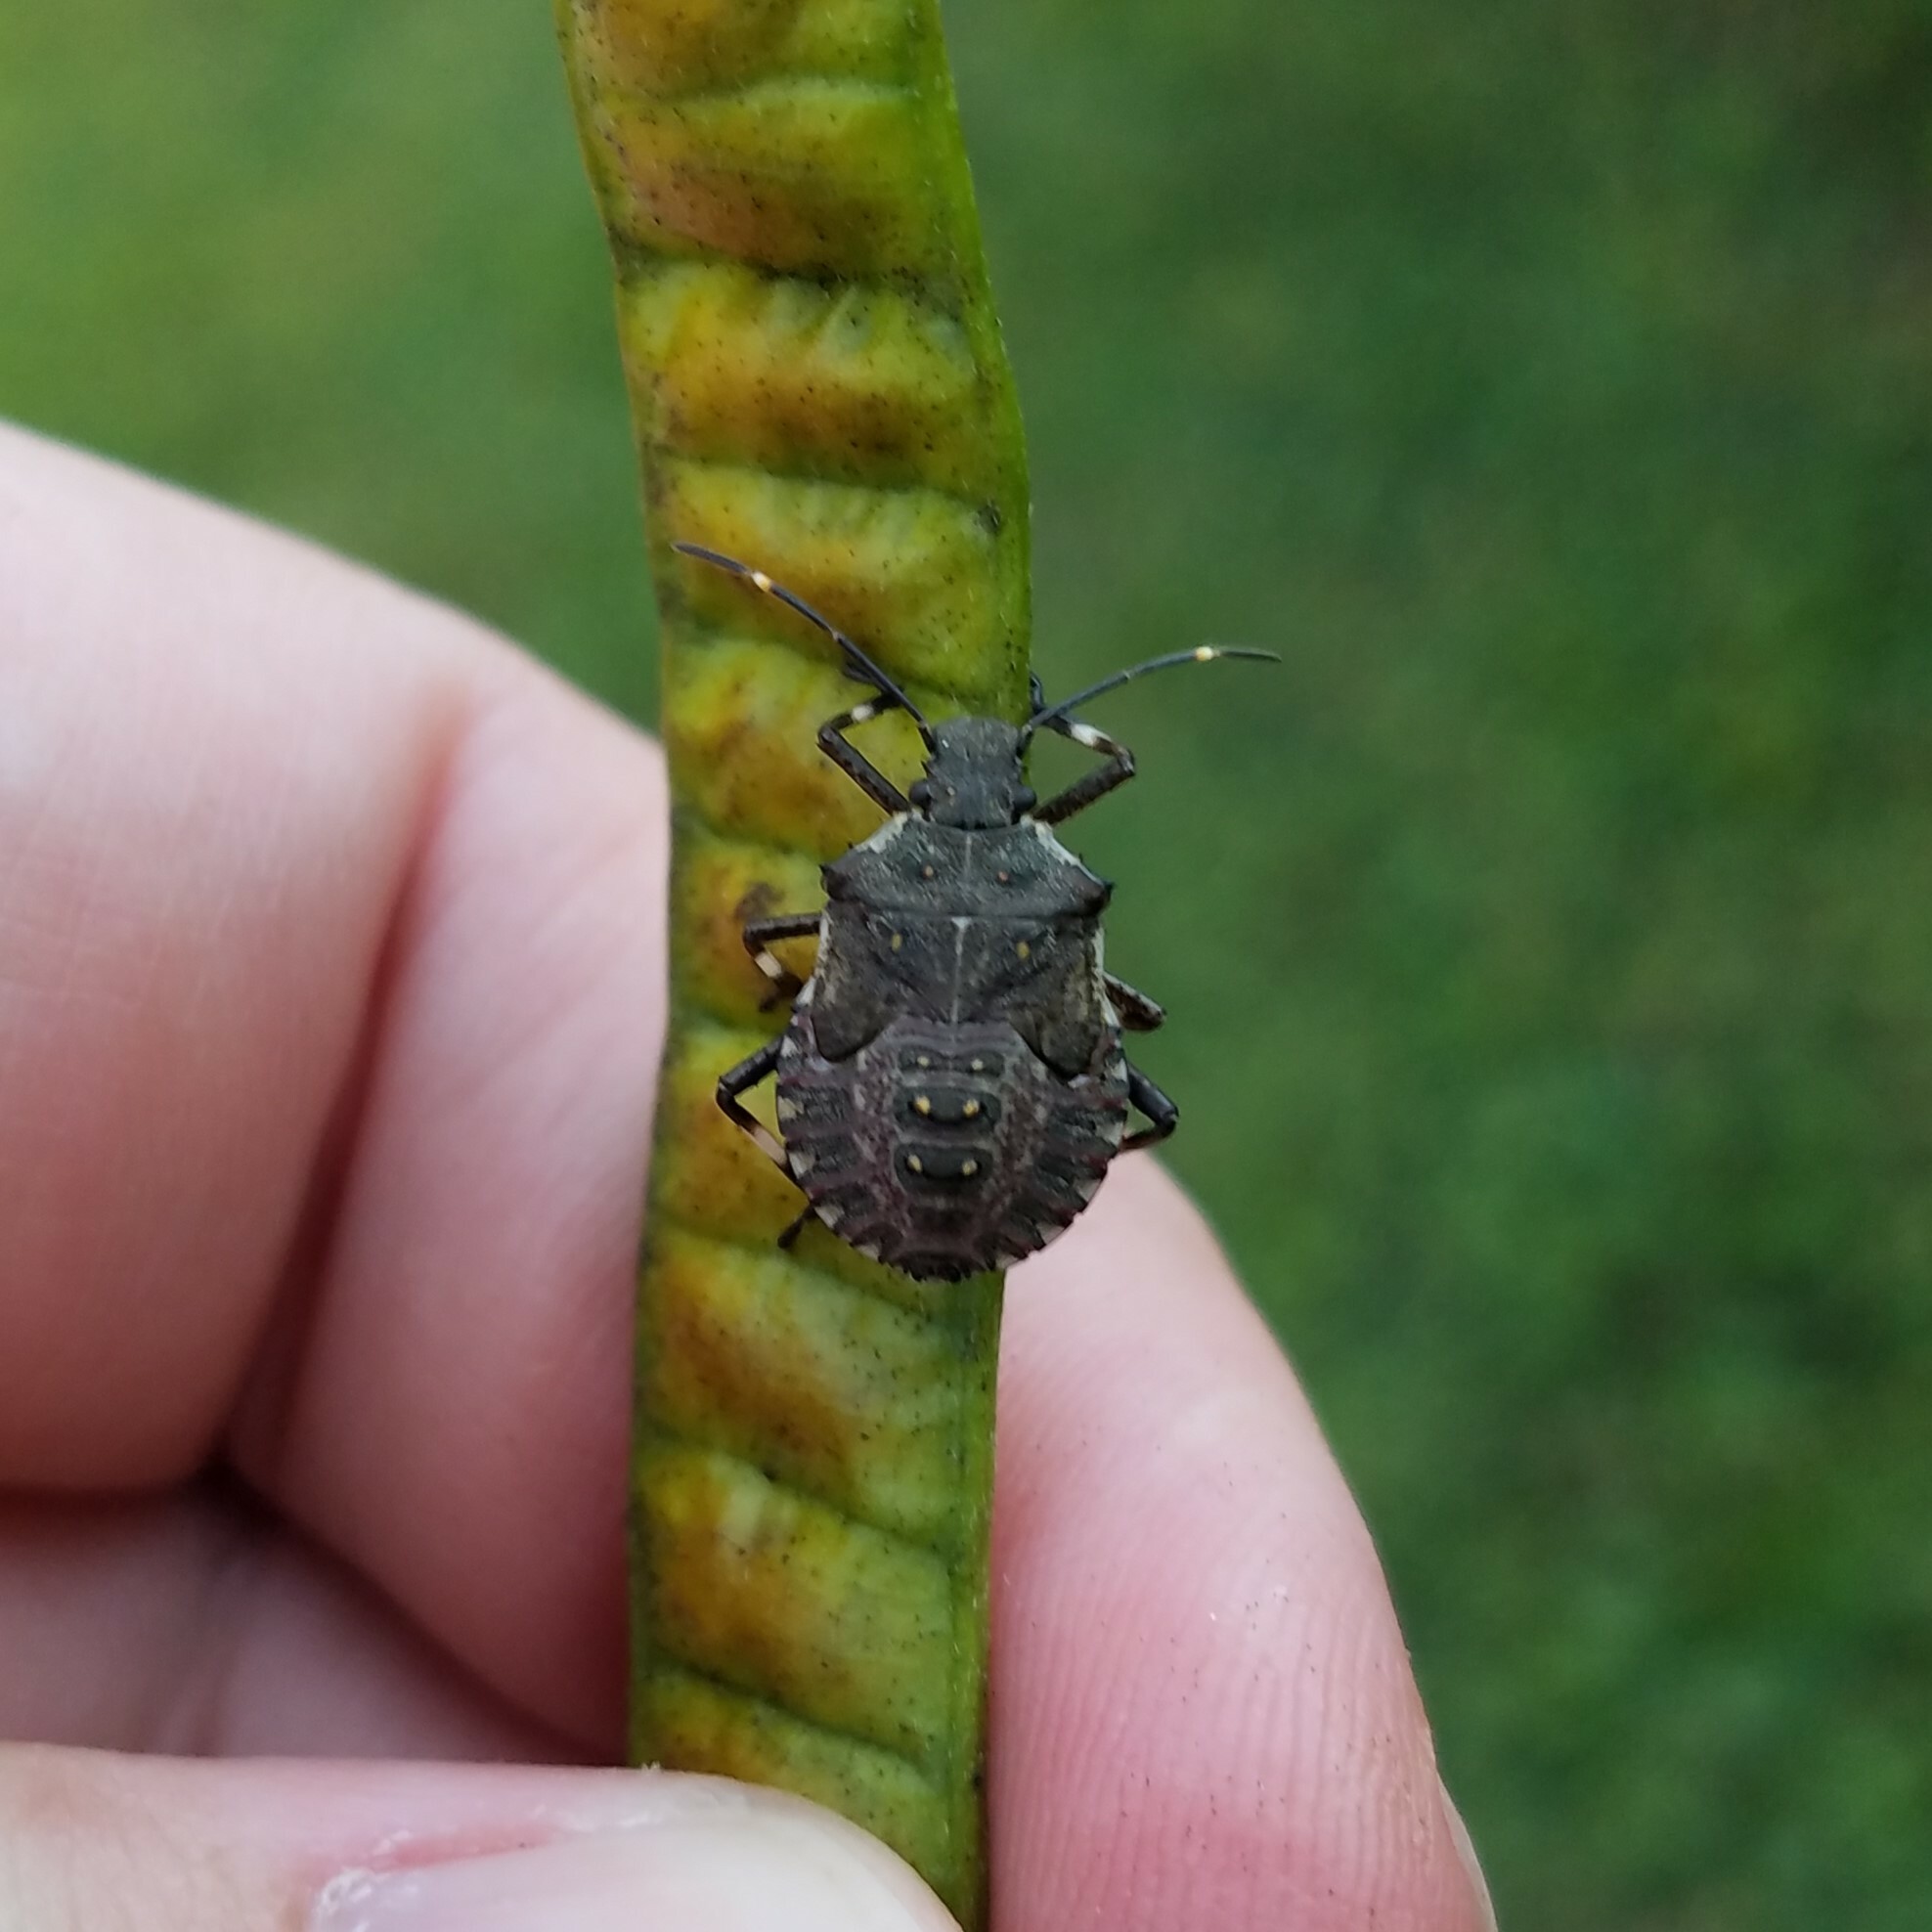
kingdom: Animalia
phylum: Arthropoda
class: Insecta
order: Hemiptera
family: Pentatomidae
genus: Halyomorpha
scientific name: Halyomorpha halys
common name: Brown marmorated stink bug
